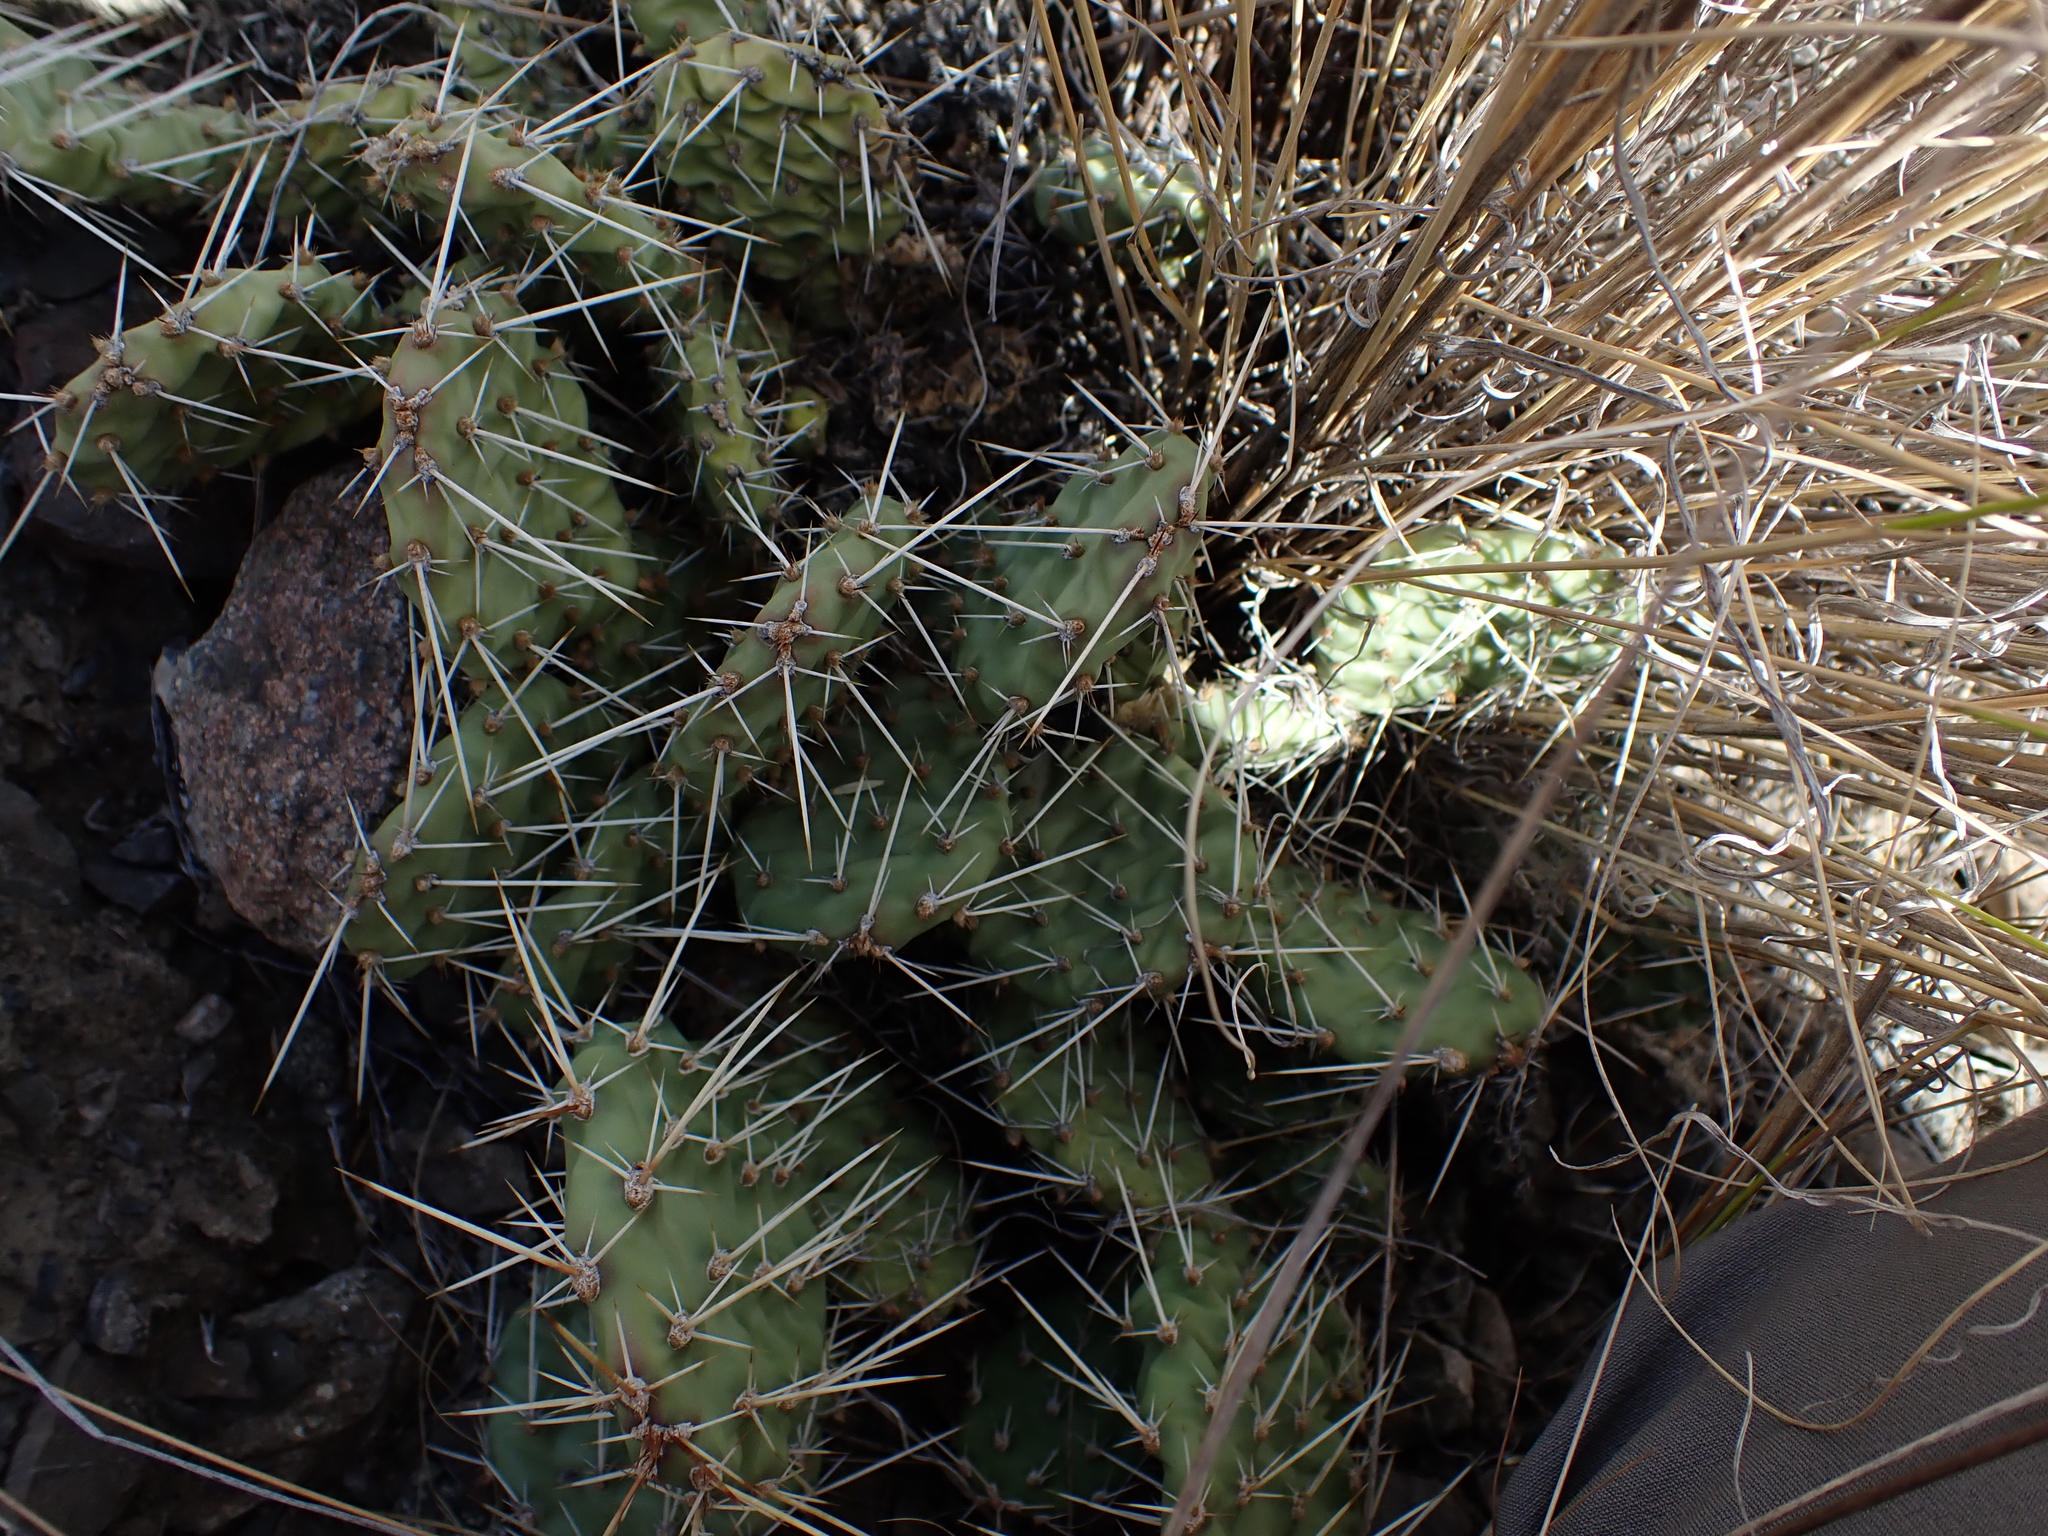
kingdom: Plantae
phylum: Tracheophyta
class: Magnoliopsida
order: Caryophyllales
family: Cactaceae
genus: Opuntia
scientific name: Opuntia fragilis
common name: Brittle cactus
